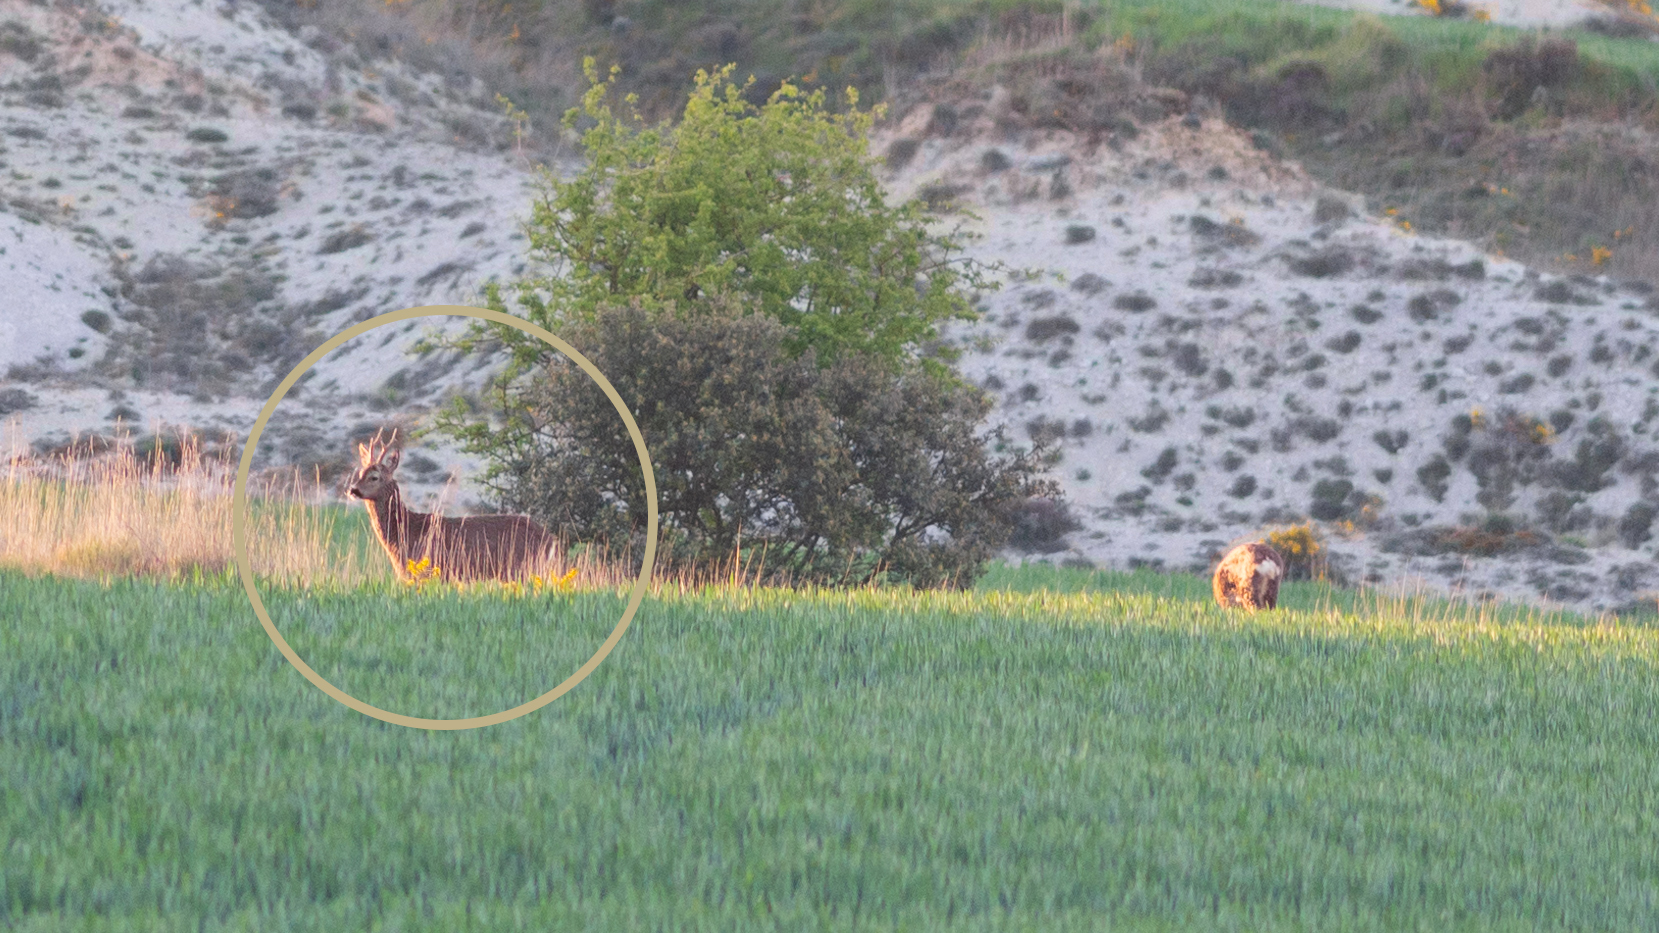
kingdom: Animalia
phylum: Chordata
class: Mammalia
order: Artiodactyla
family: Cervidae
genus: Capreolus
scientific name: Capreolus capreolus
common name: Western roe deer
